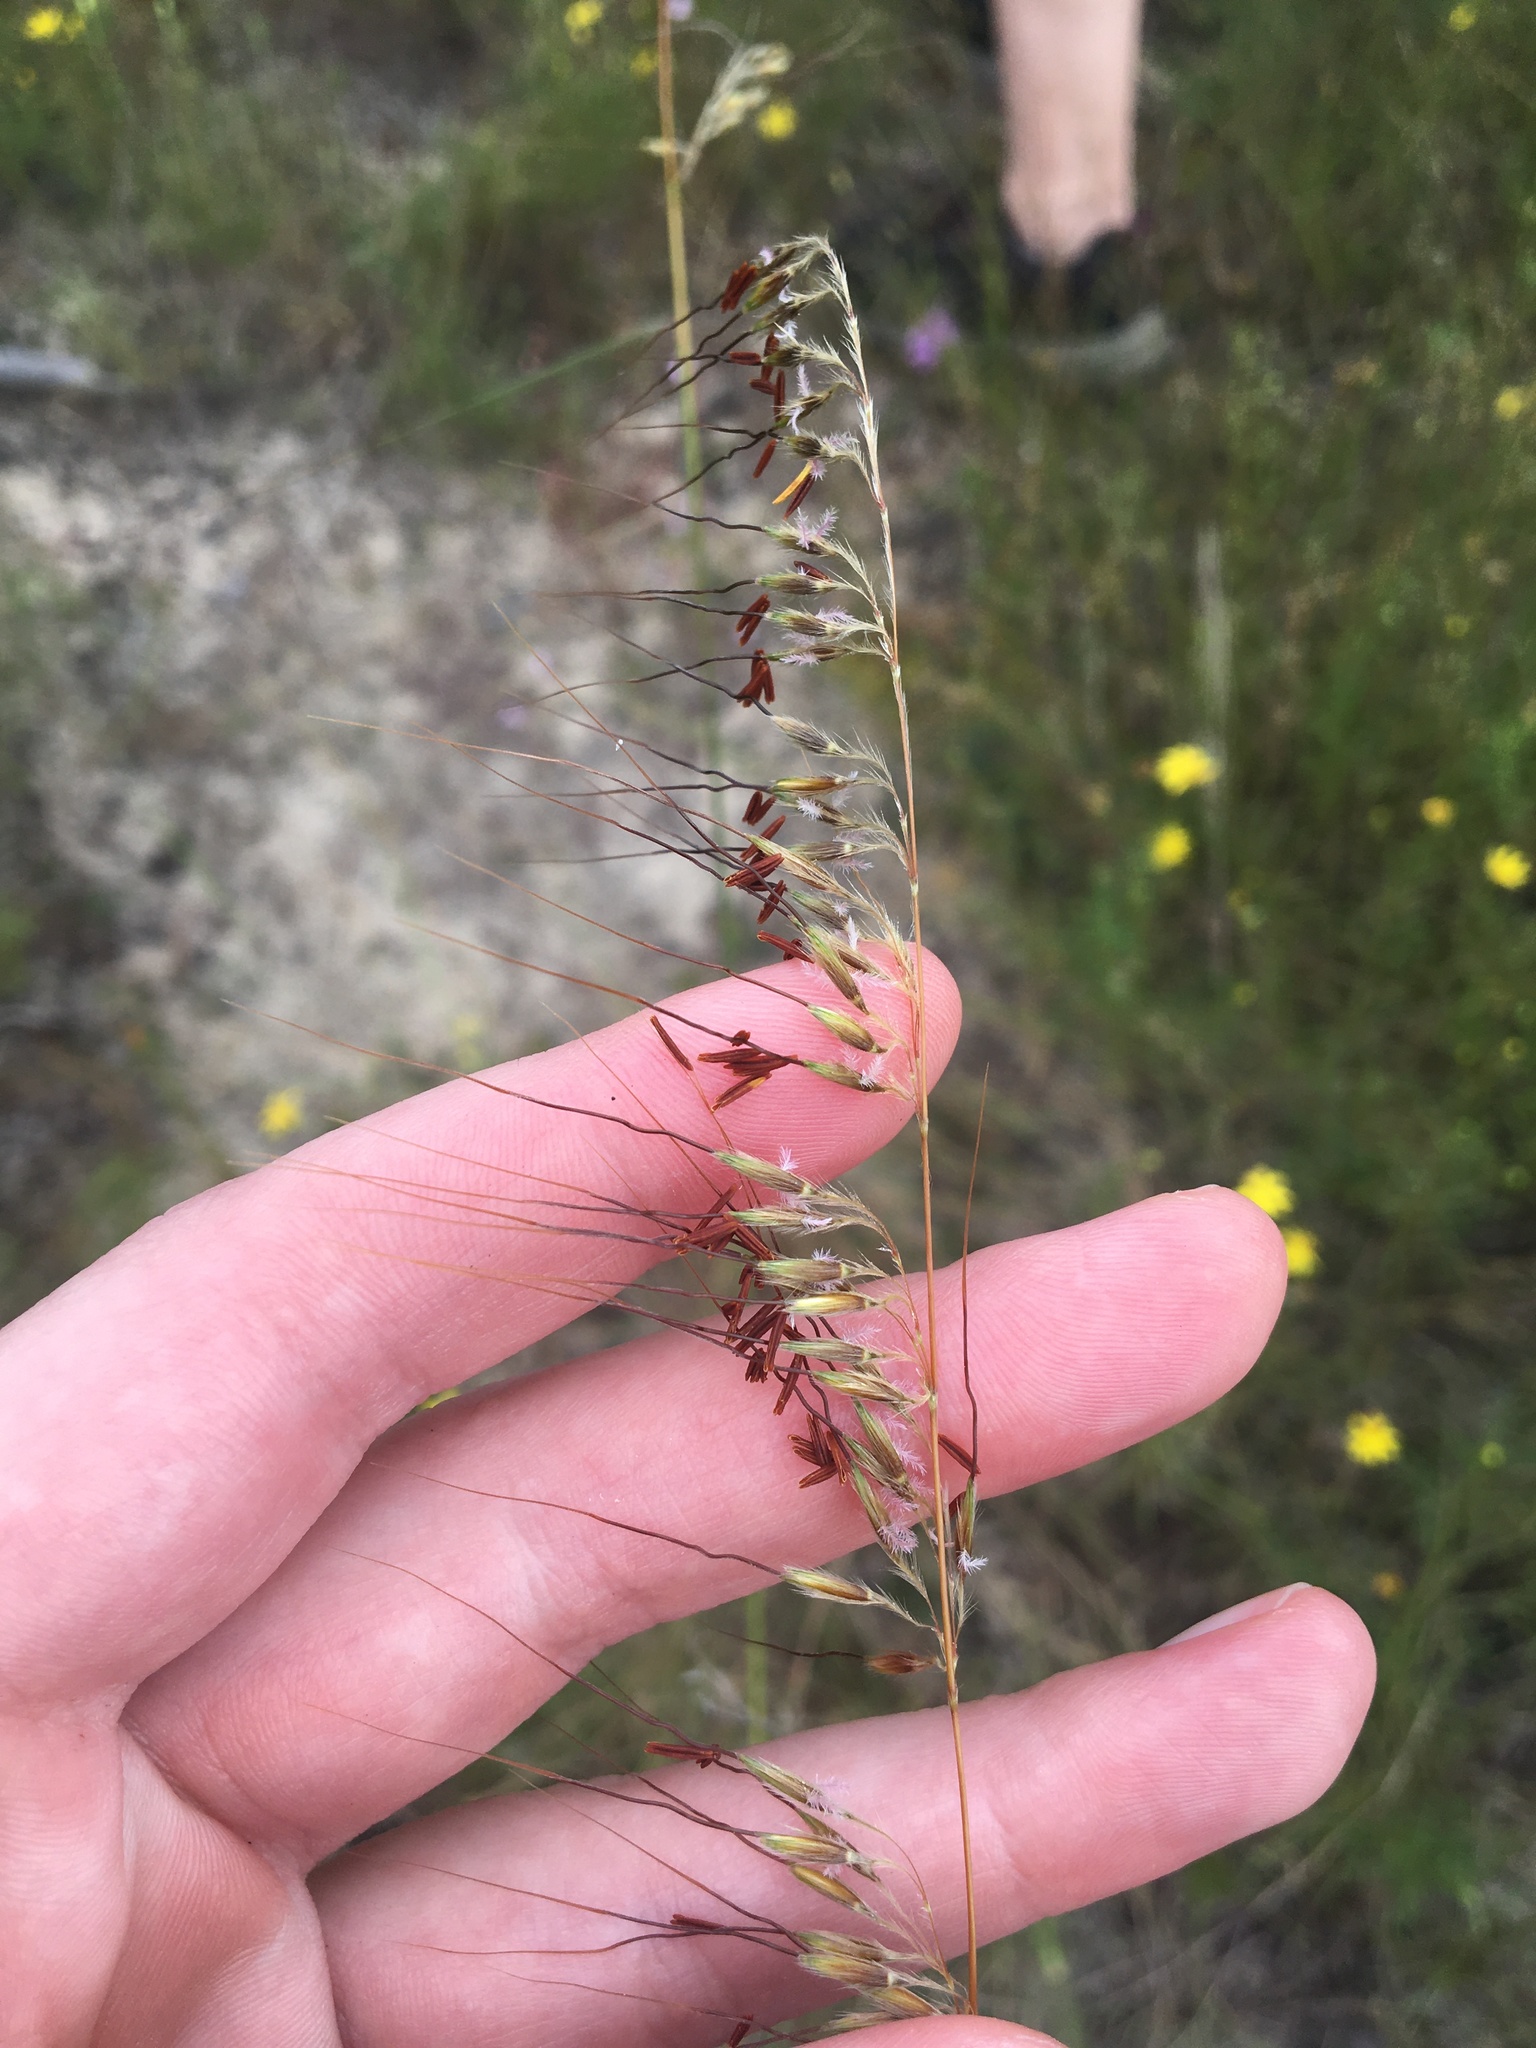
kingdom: Plantae
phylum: Tracheophyta
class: Liliopsida
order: Poales
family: Poaceae
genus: Sorghastrum
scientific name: Sorghastrum secundum
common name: Lopsided indian grass
